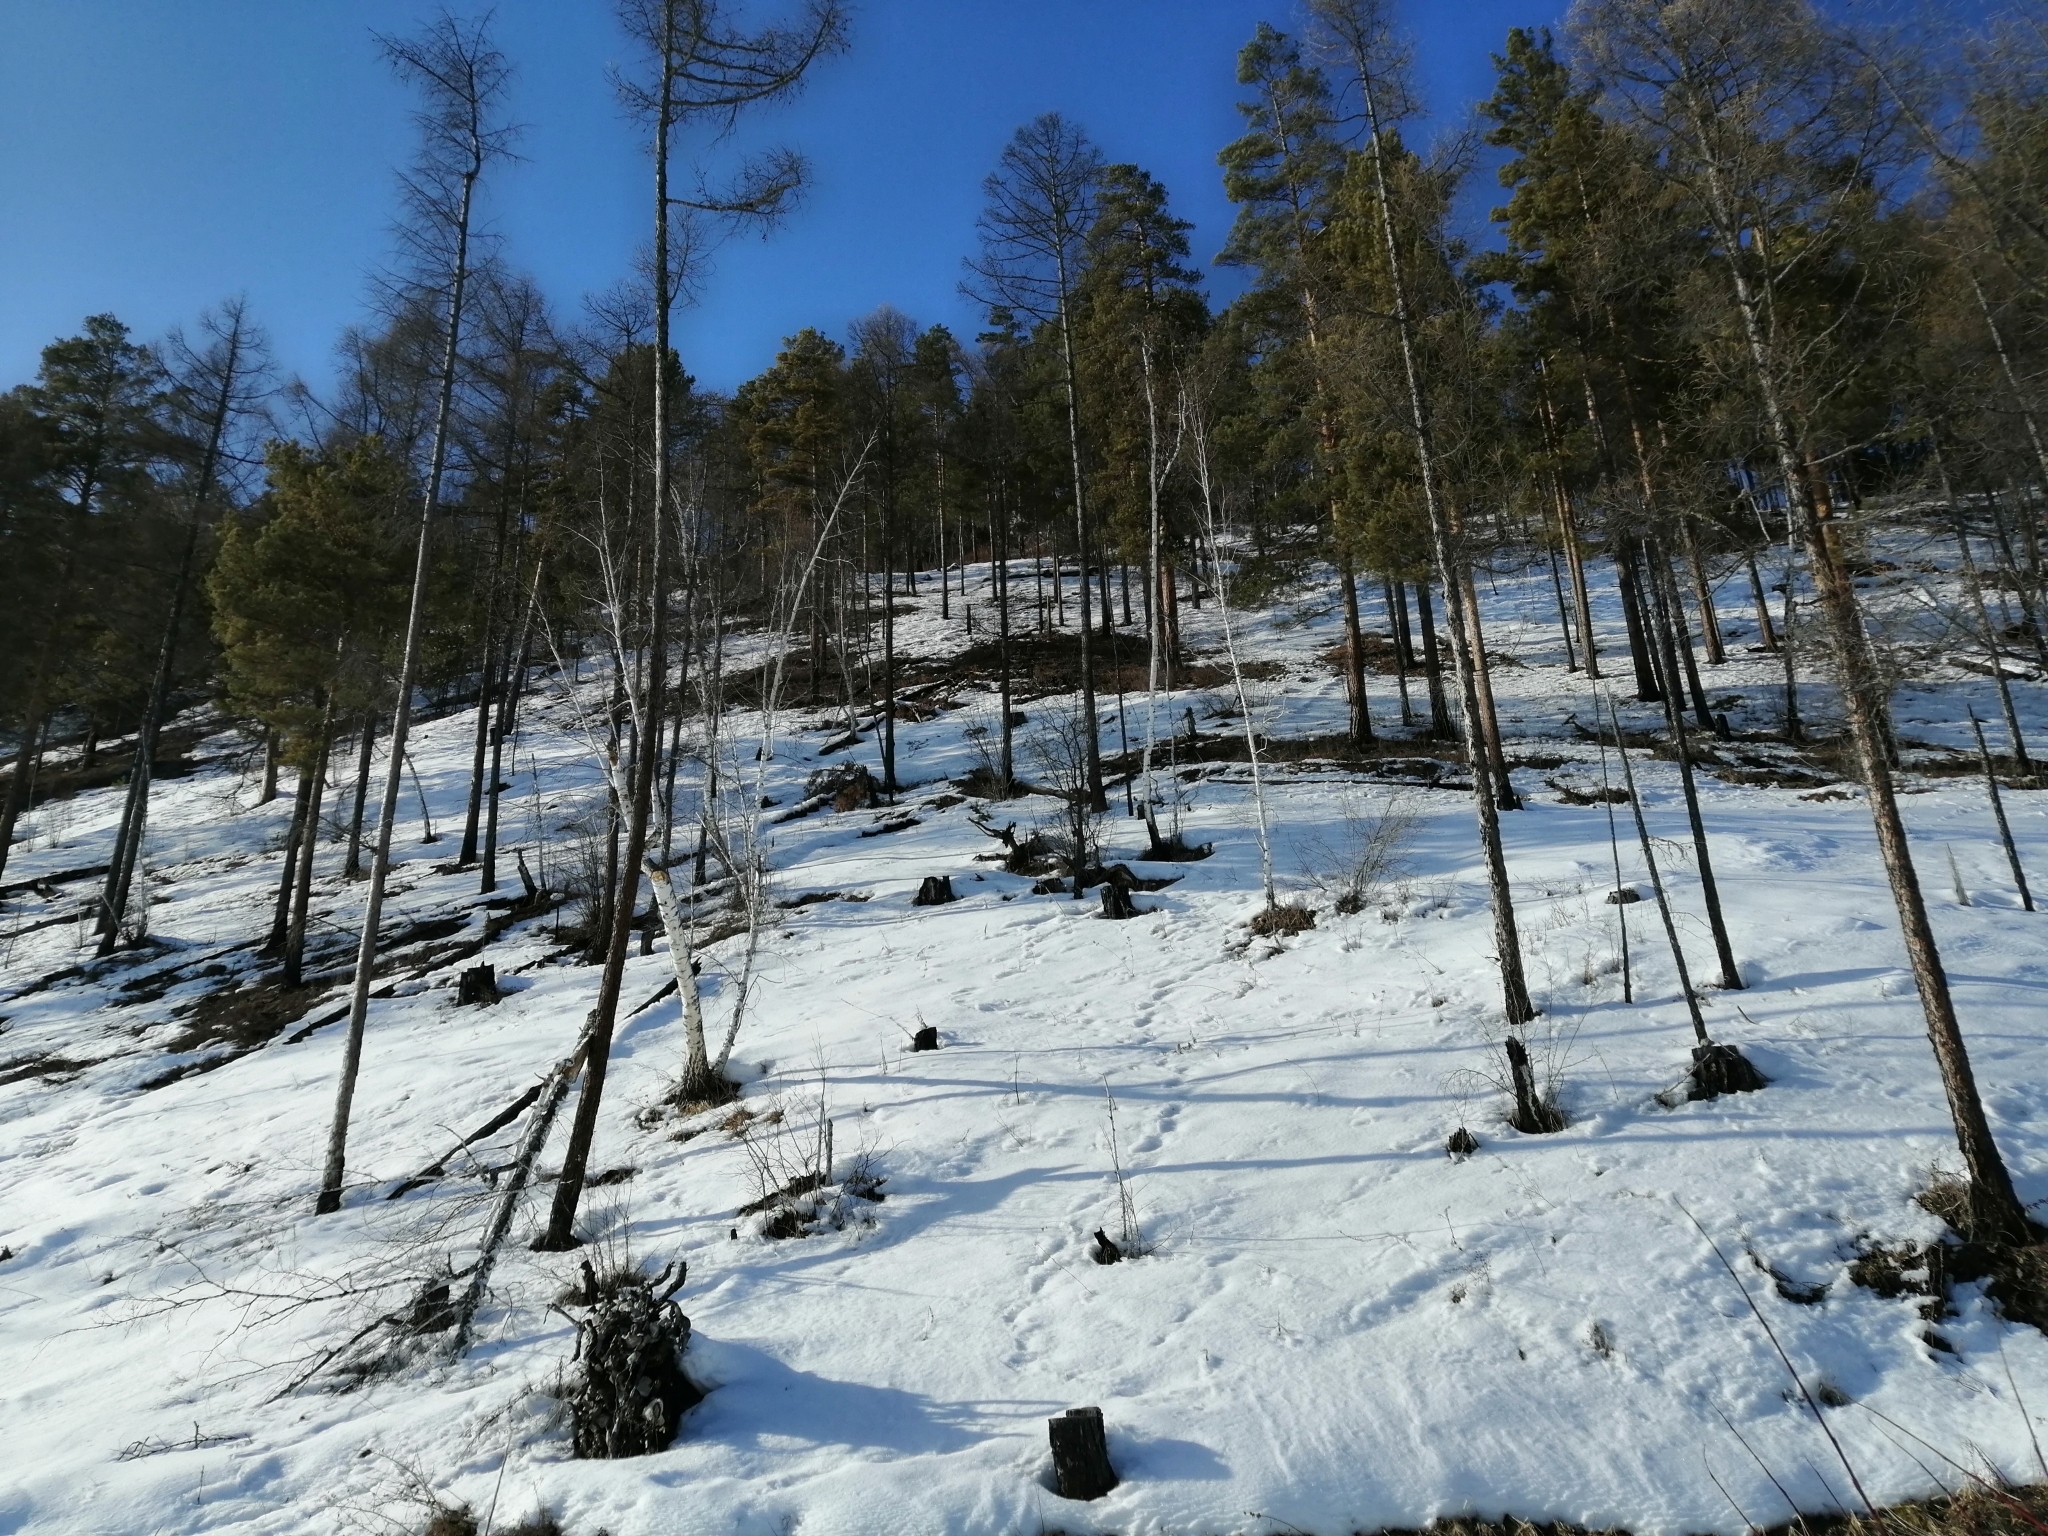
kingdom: Plantae
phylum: Tracheophyta
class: Pinopsida
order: Pinales
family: Pinaceae
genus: Larix
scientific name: Larix sibirica
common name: Siberian larch
